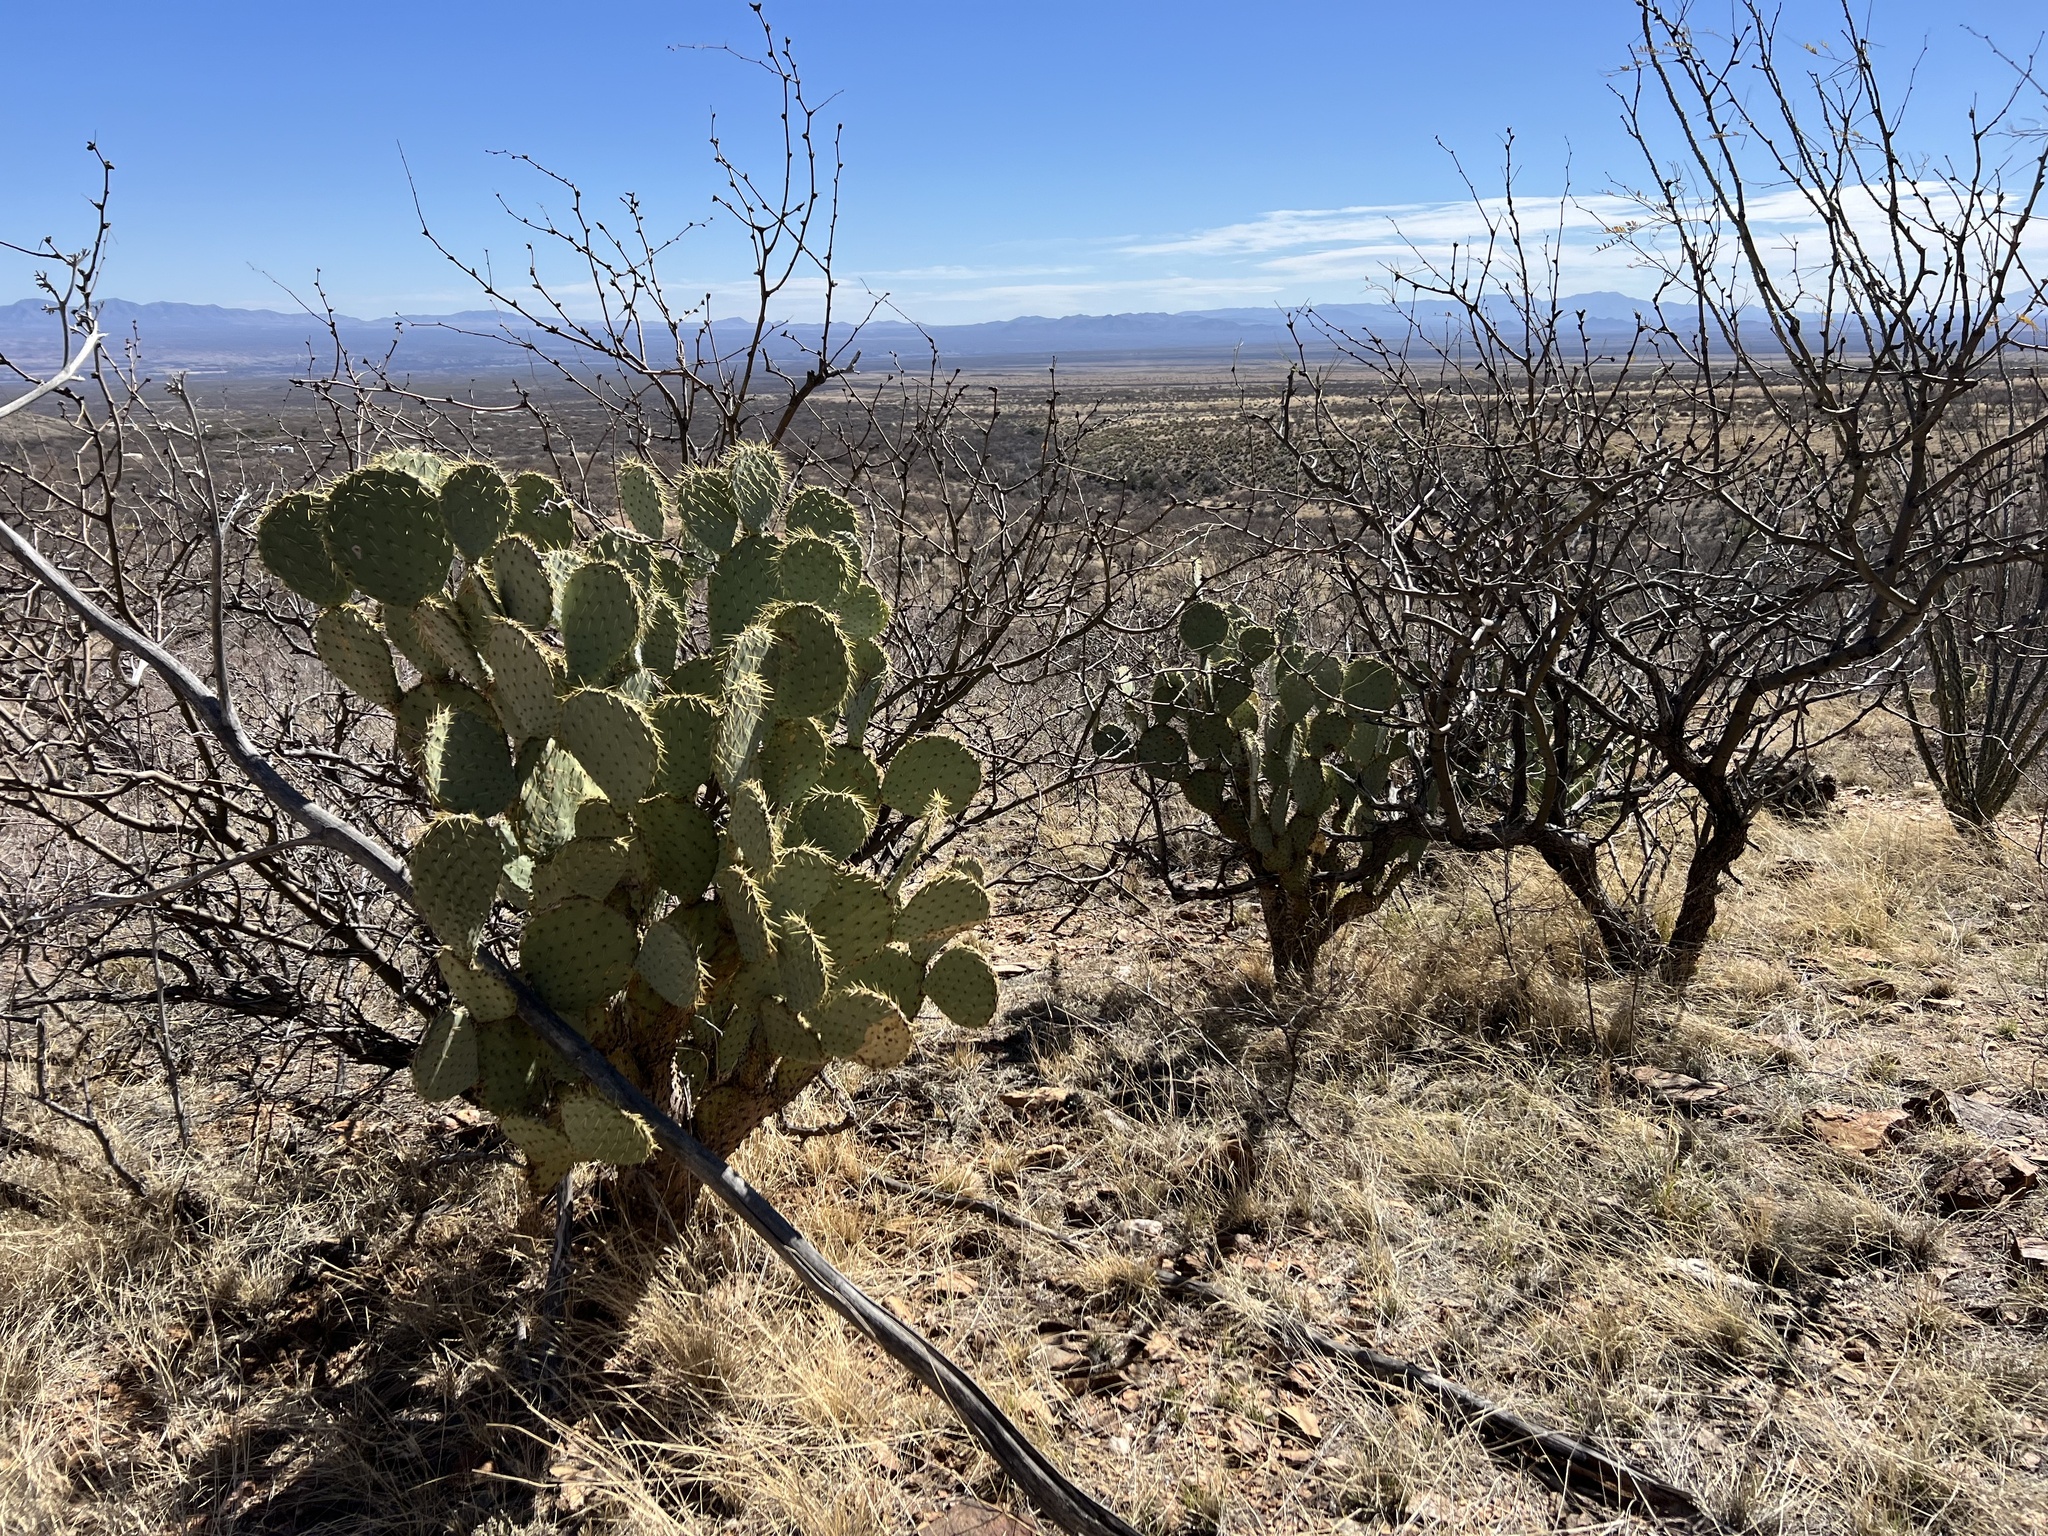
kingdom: Plantae
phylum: Tracheophyta
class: Magnoliopsida
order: Caryophyllales
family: Cactaceae
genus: Opuntia
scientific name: Opuntia chlorotica
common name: Dollar-joint prickly-pear
